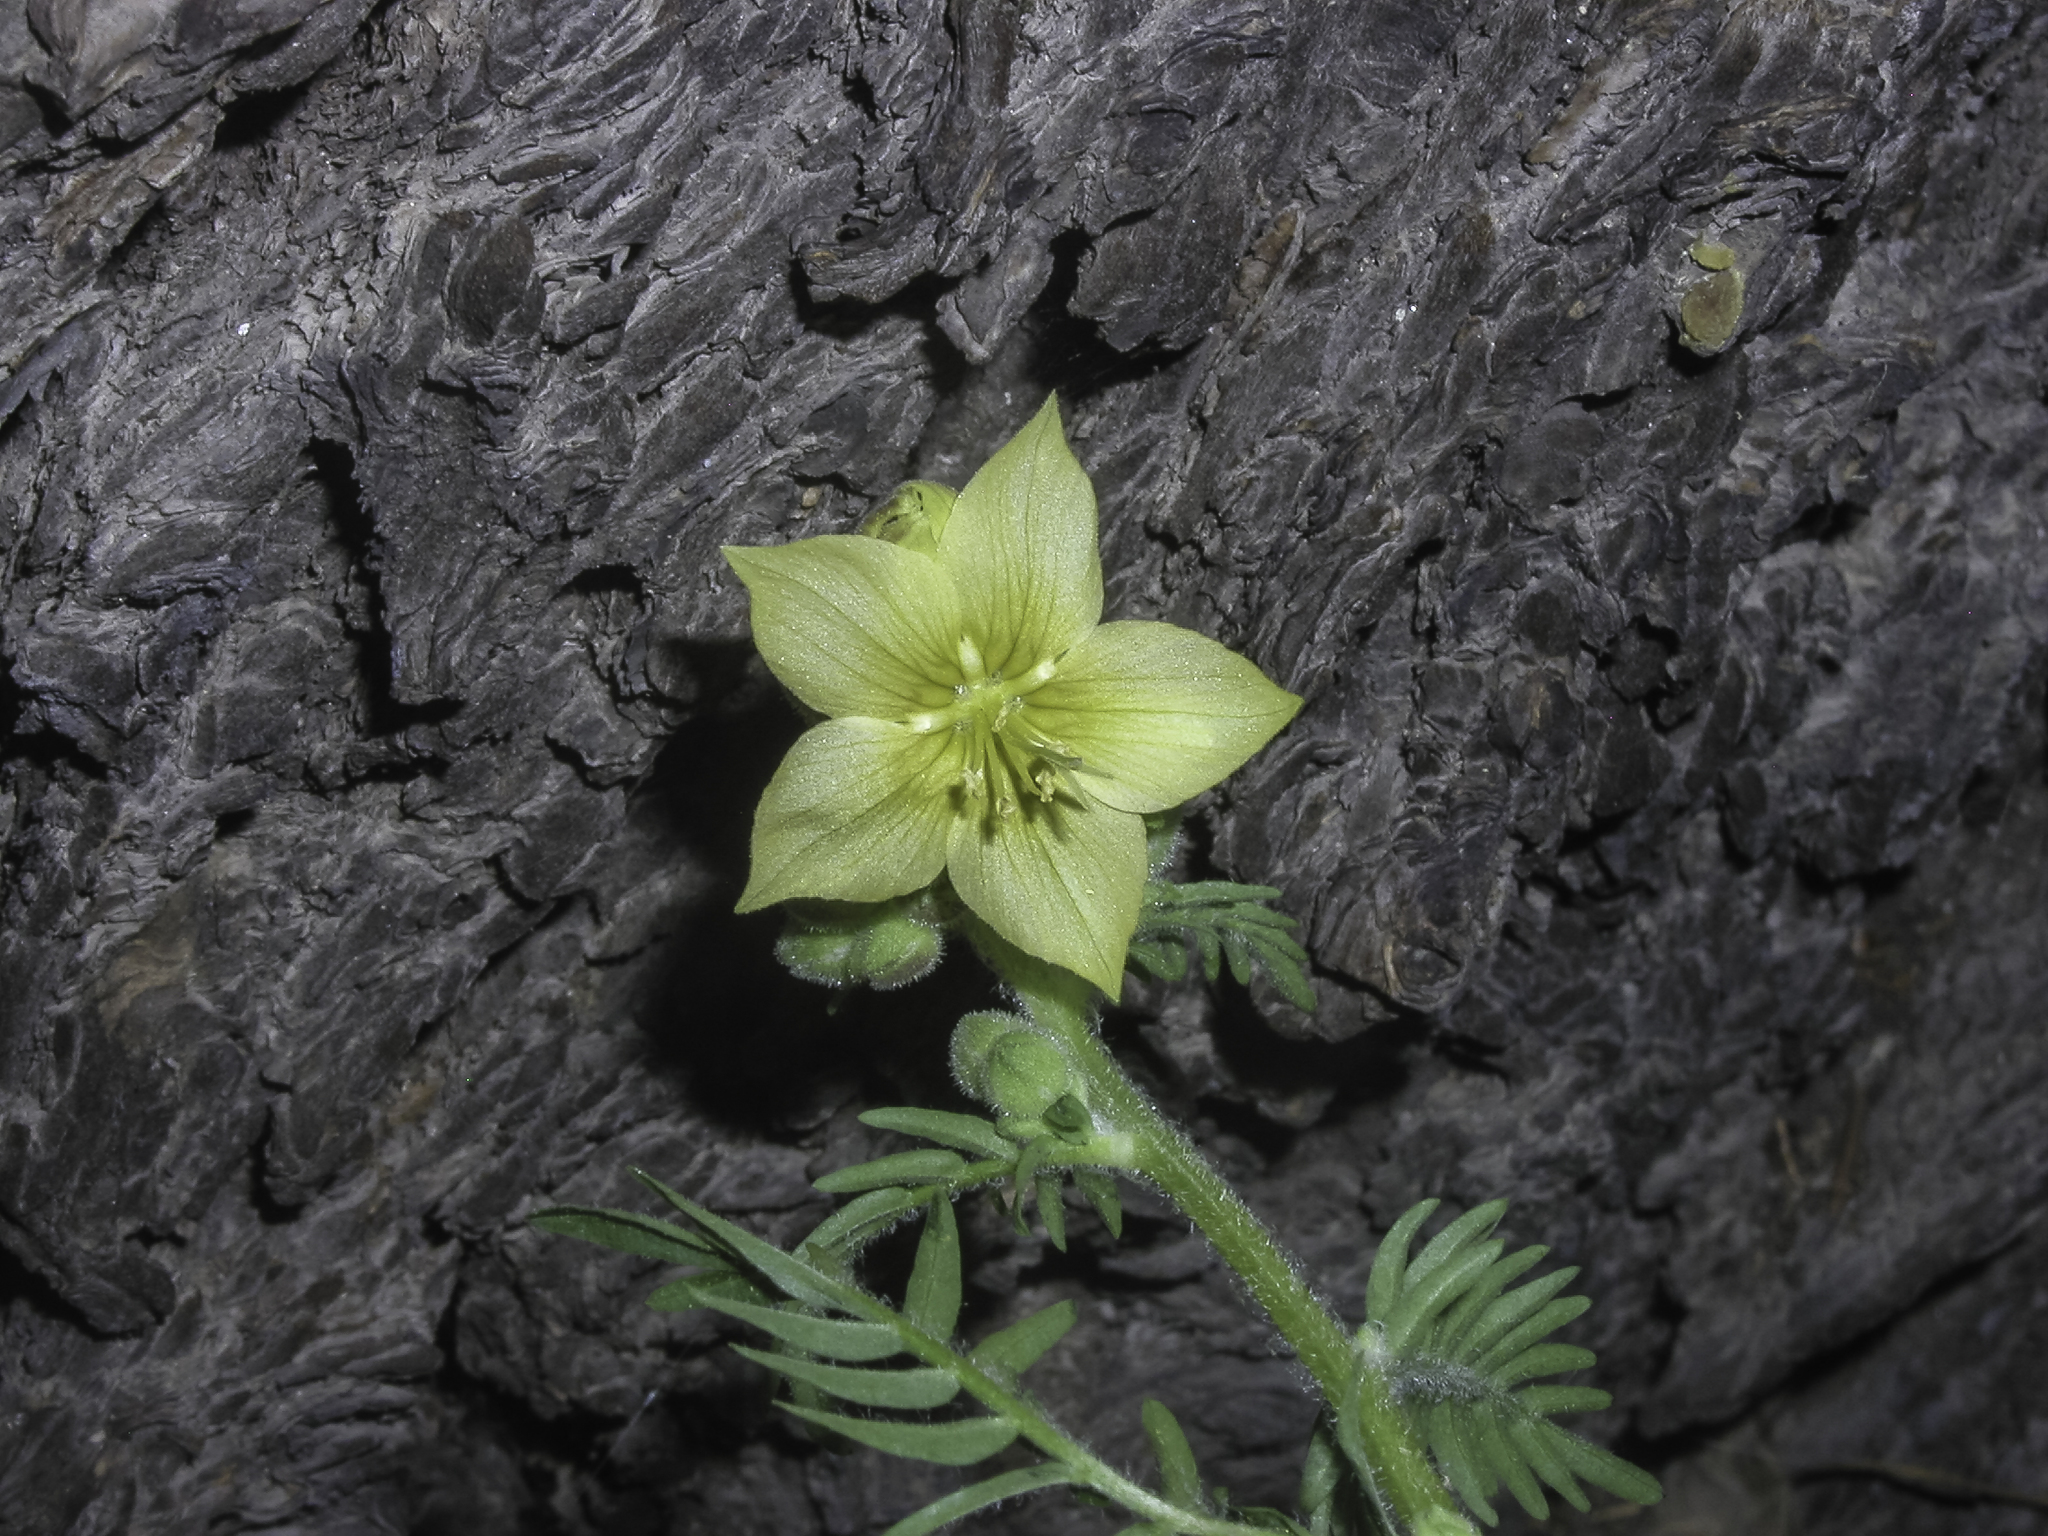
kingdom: Plantae
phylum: Tracheophyta
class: Magnoliopsida
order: Ericales
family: Polemoniaceae
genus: Polemonium
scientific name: Polemonium foliosissimum
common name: Leafy jacob's-ladder
